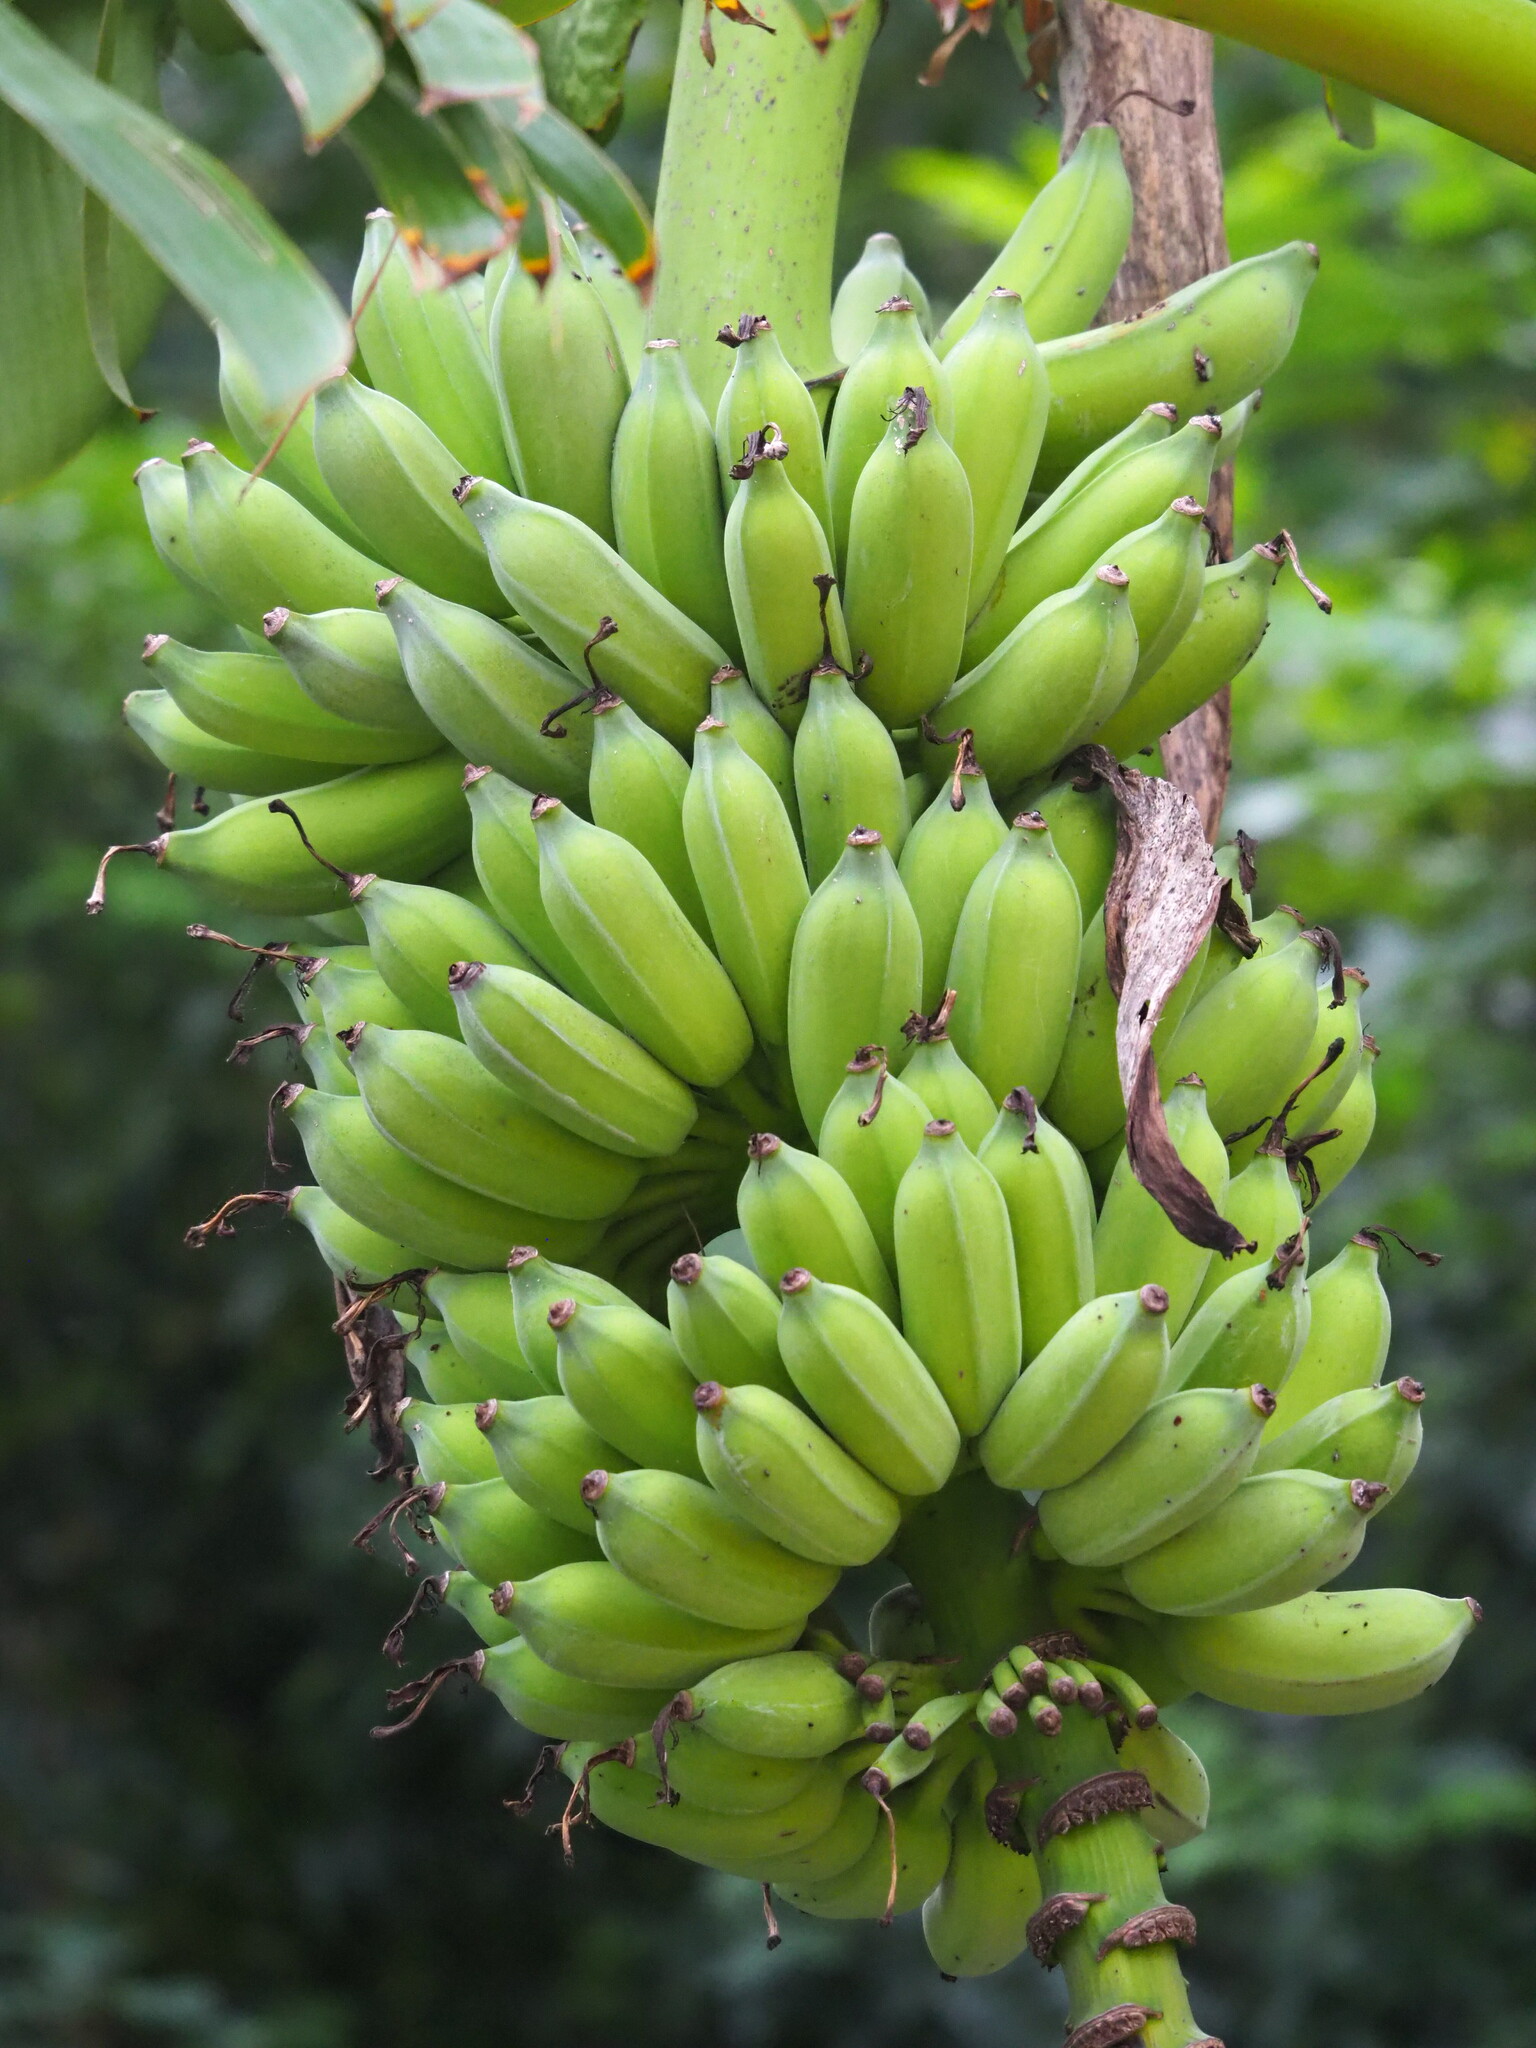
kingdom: Plantae
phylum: Tracheophyta
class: Liliopsida
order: Zingiberales
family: Musaceae
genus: Musa
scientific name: Musa paradisiaca
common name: French plantain
